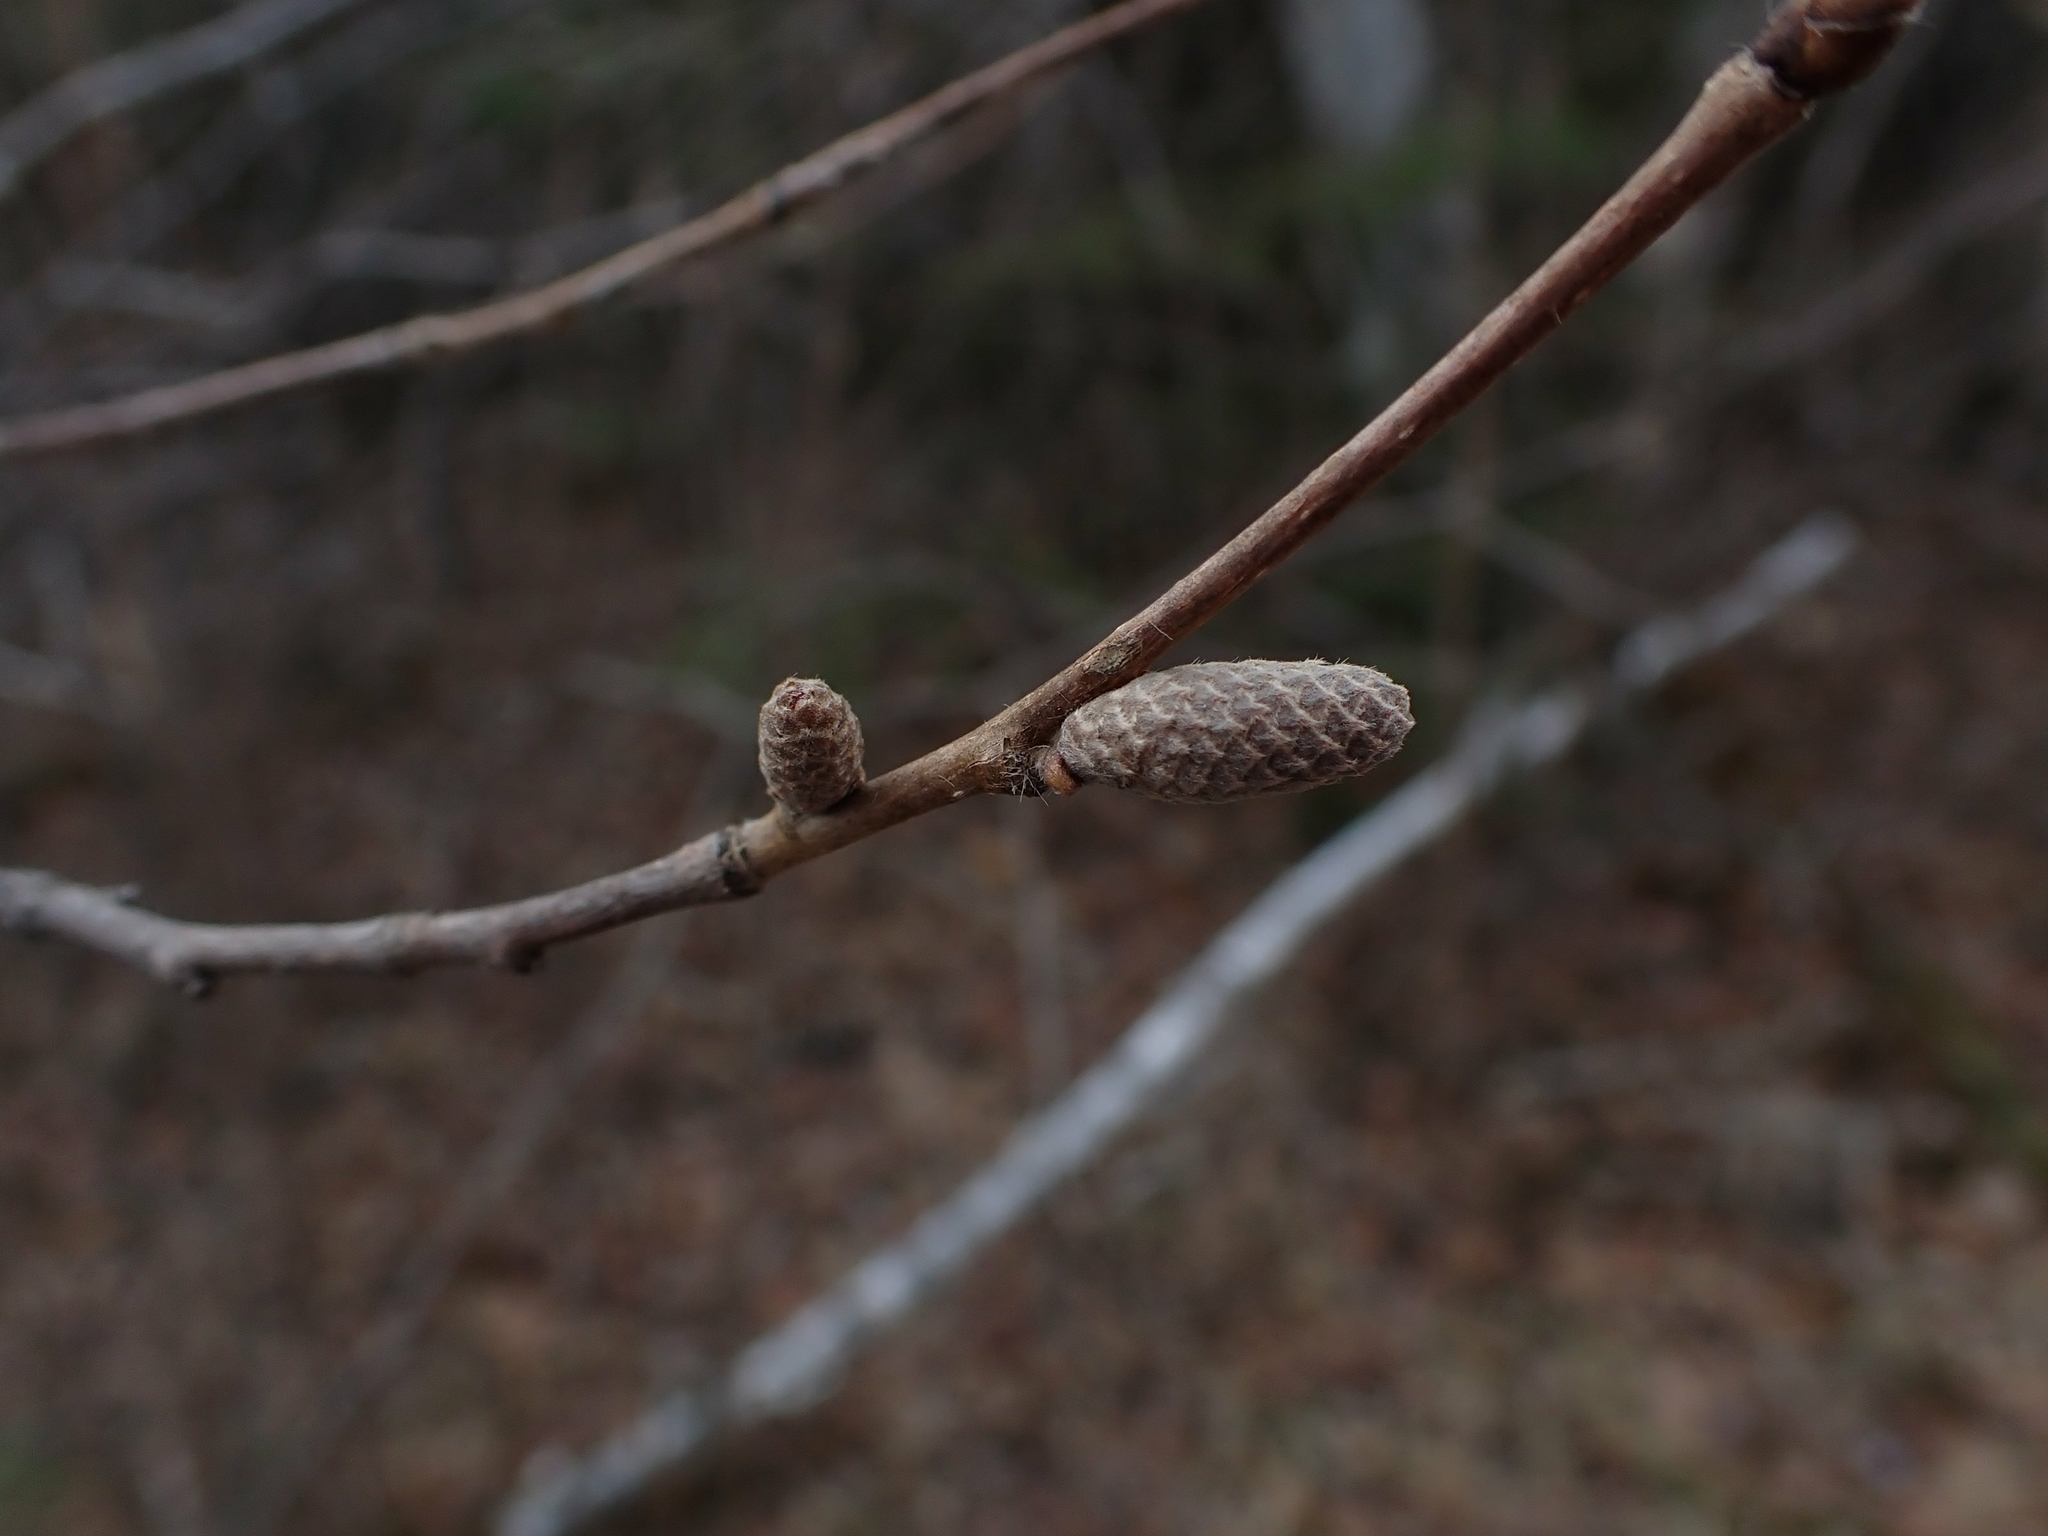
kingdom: Plantae
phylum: Tracheophyta
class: Magnoliopsida
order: Fagales
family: Betulaceae
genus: Corylus
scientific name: Corylus cornuta
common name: Beaked hazel
